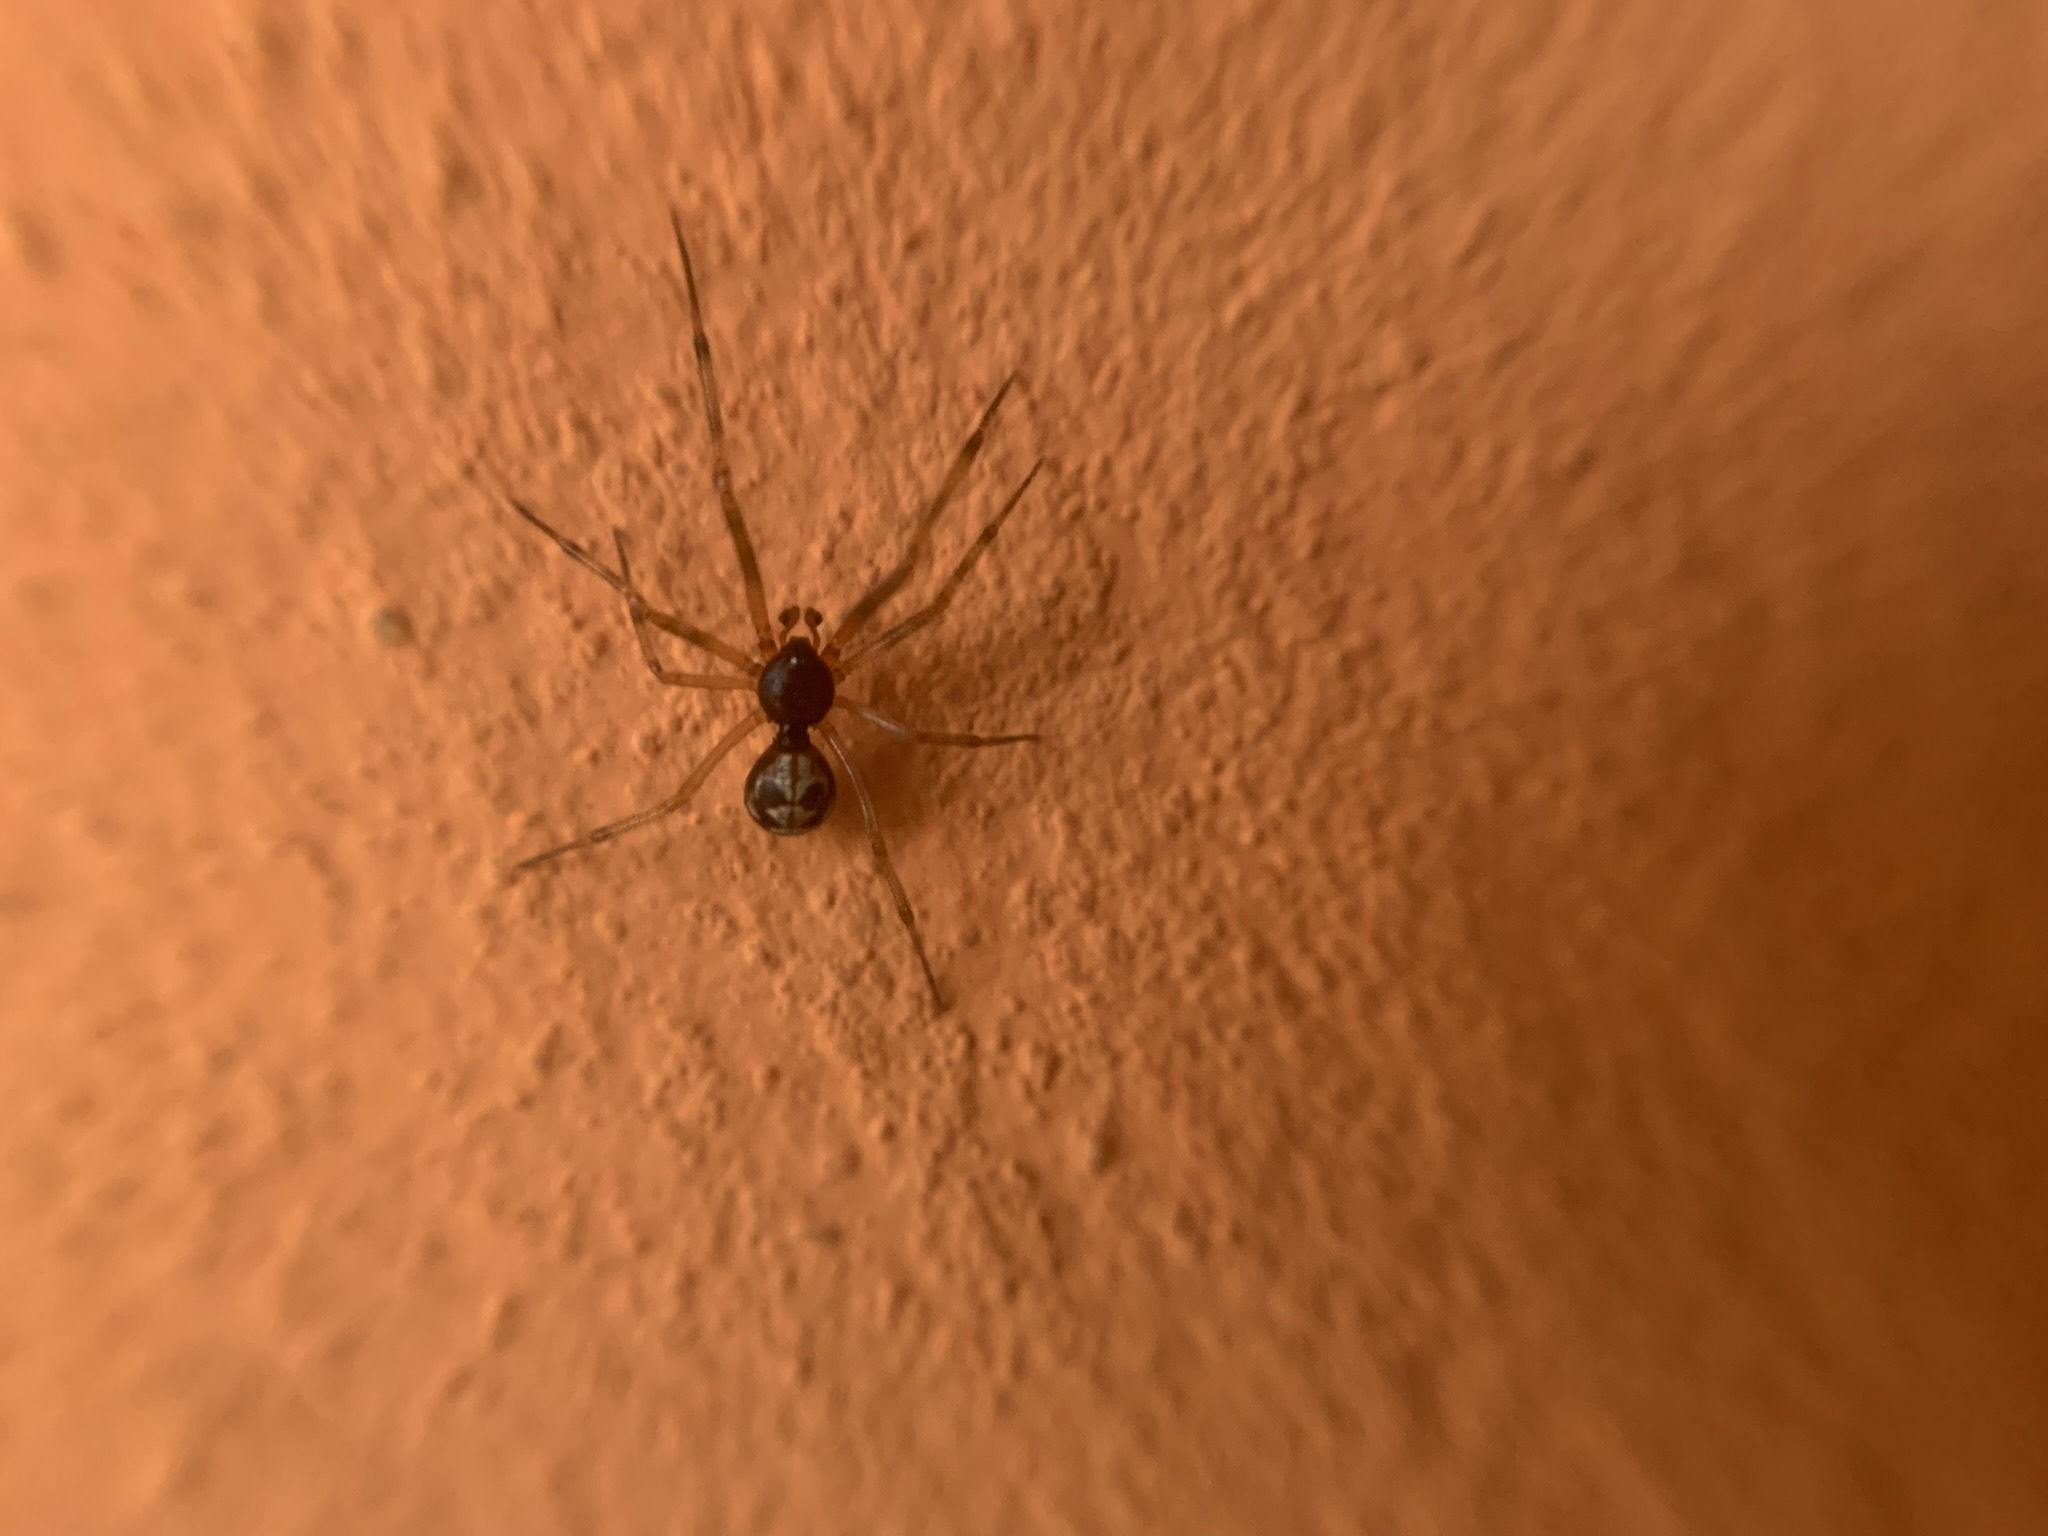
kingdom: Animalia
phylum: Arthropoda
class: Arachnida
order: Araneae
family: Theridiidae
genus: Steatoda
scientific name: Steatoda triangulosa
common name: Triangulate bud spider
